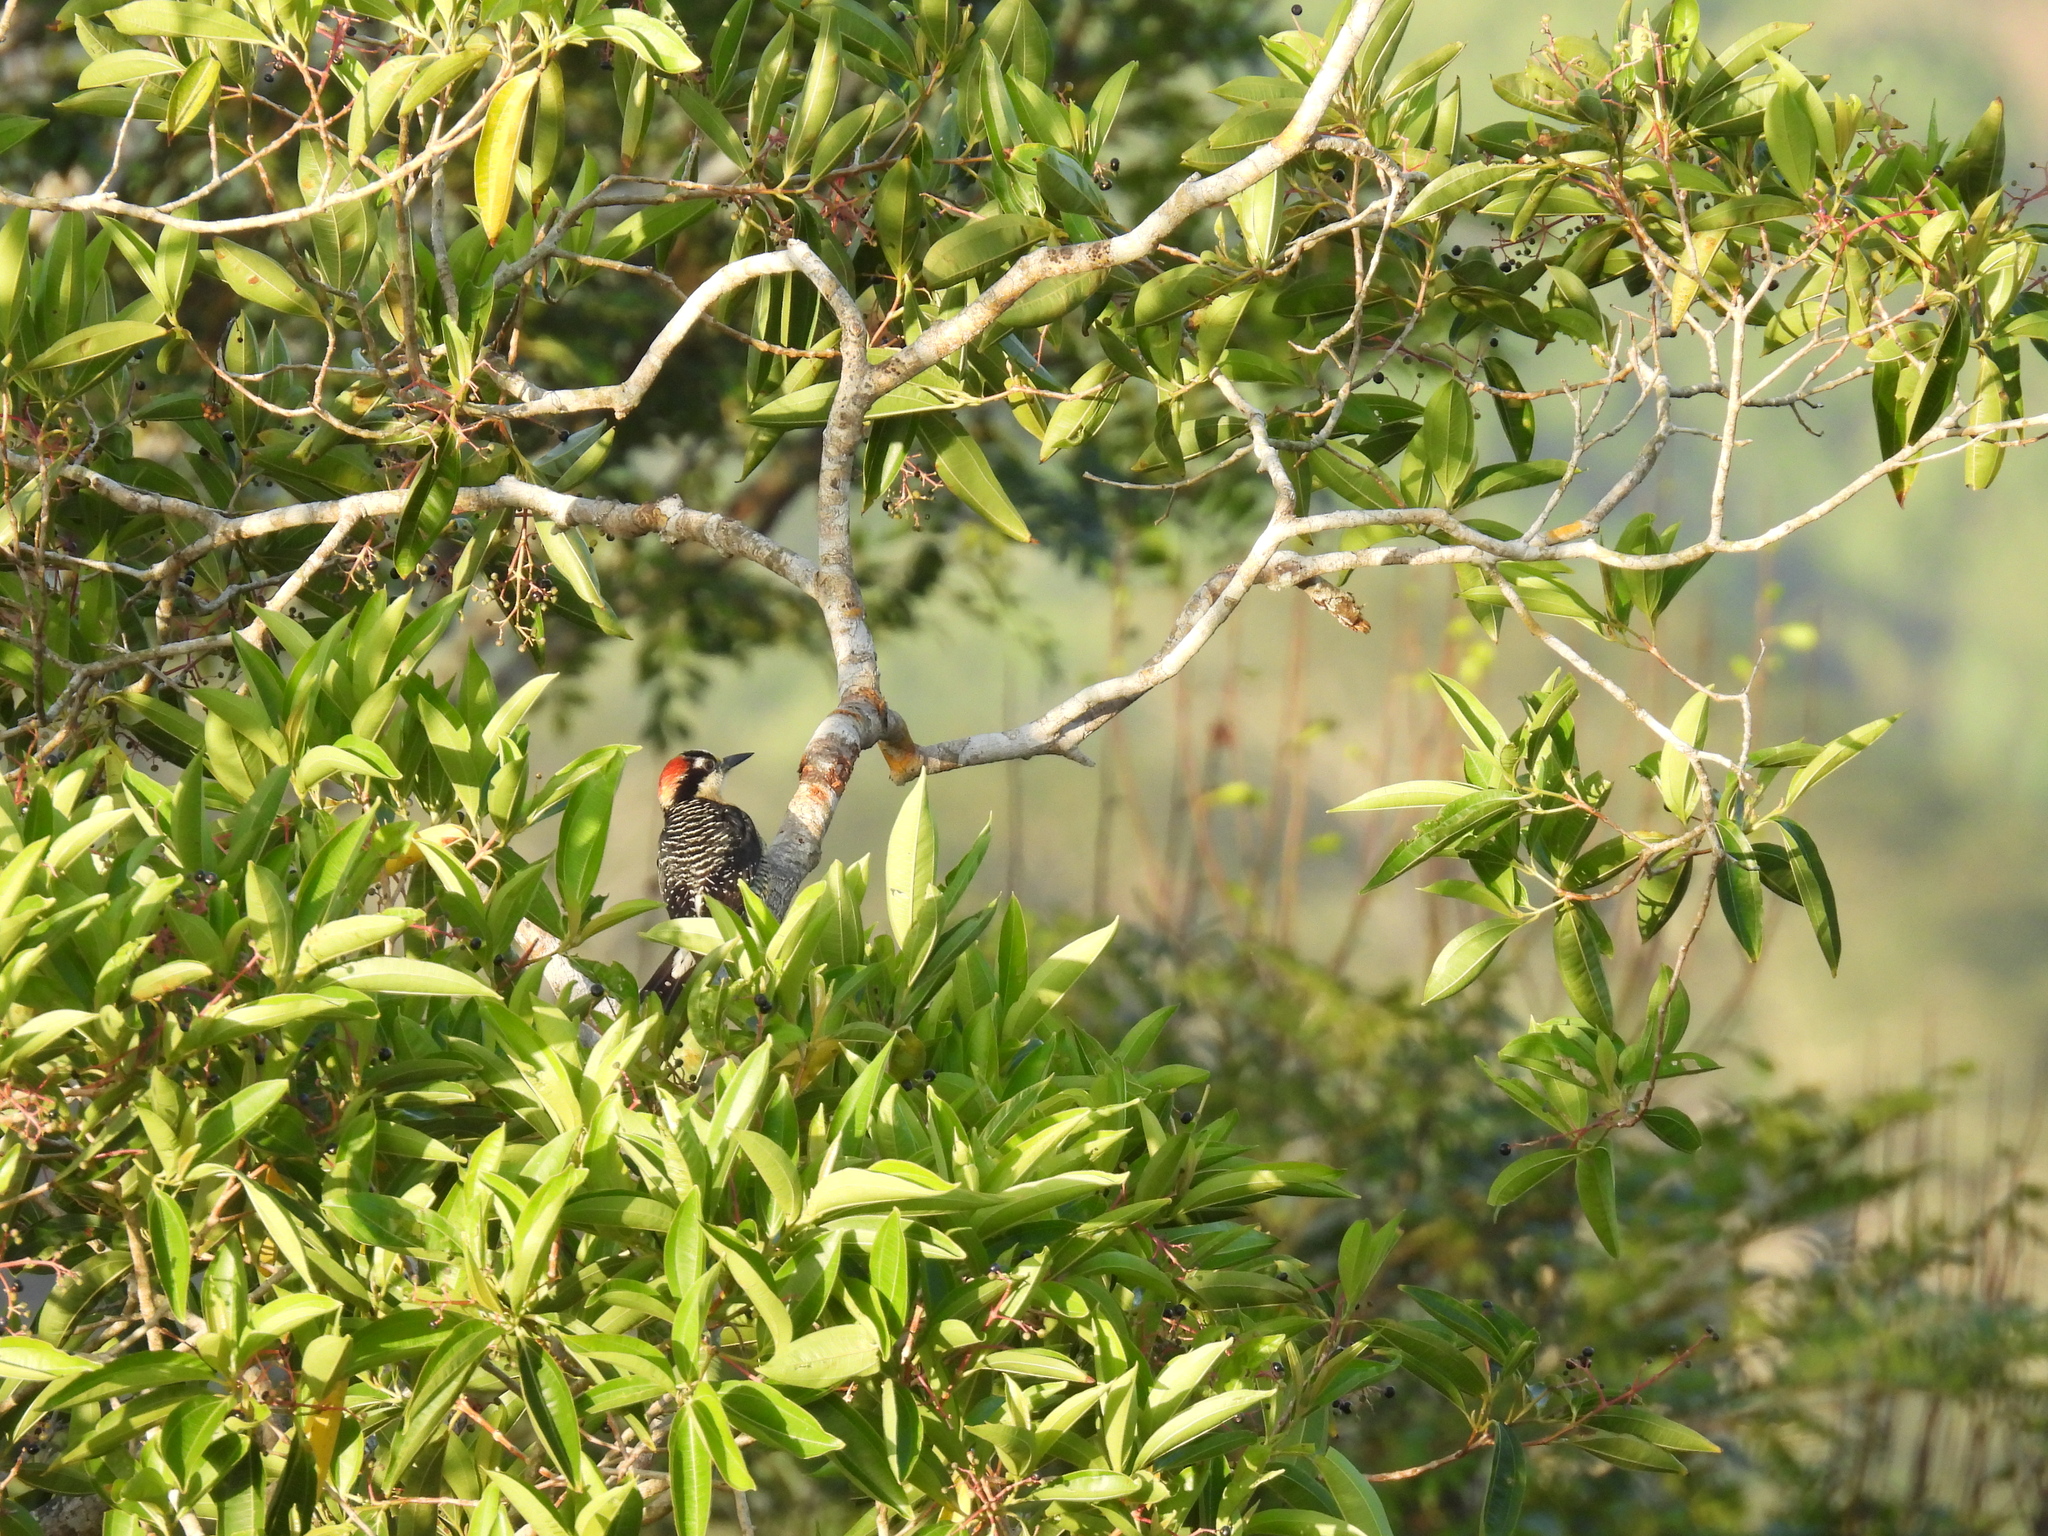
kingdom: Animalia
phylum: Chordata
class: Aves
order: Piciformes
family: Picidae
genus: Melanerpes
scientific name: Melanerpes pucherani
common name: Black-cheeked woodpecker
